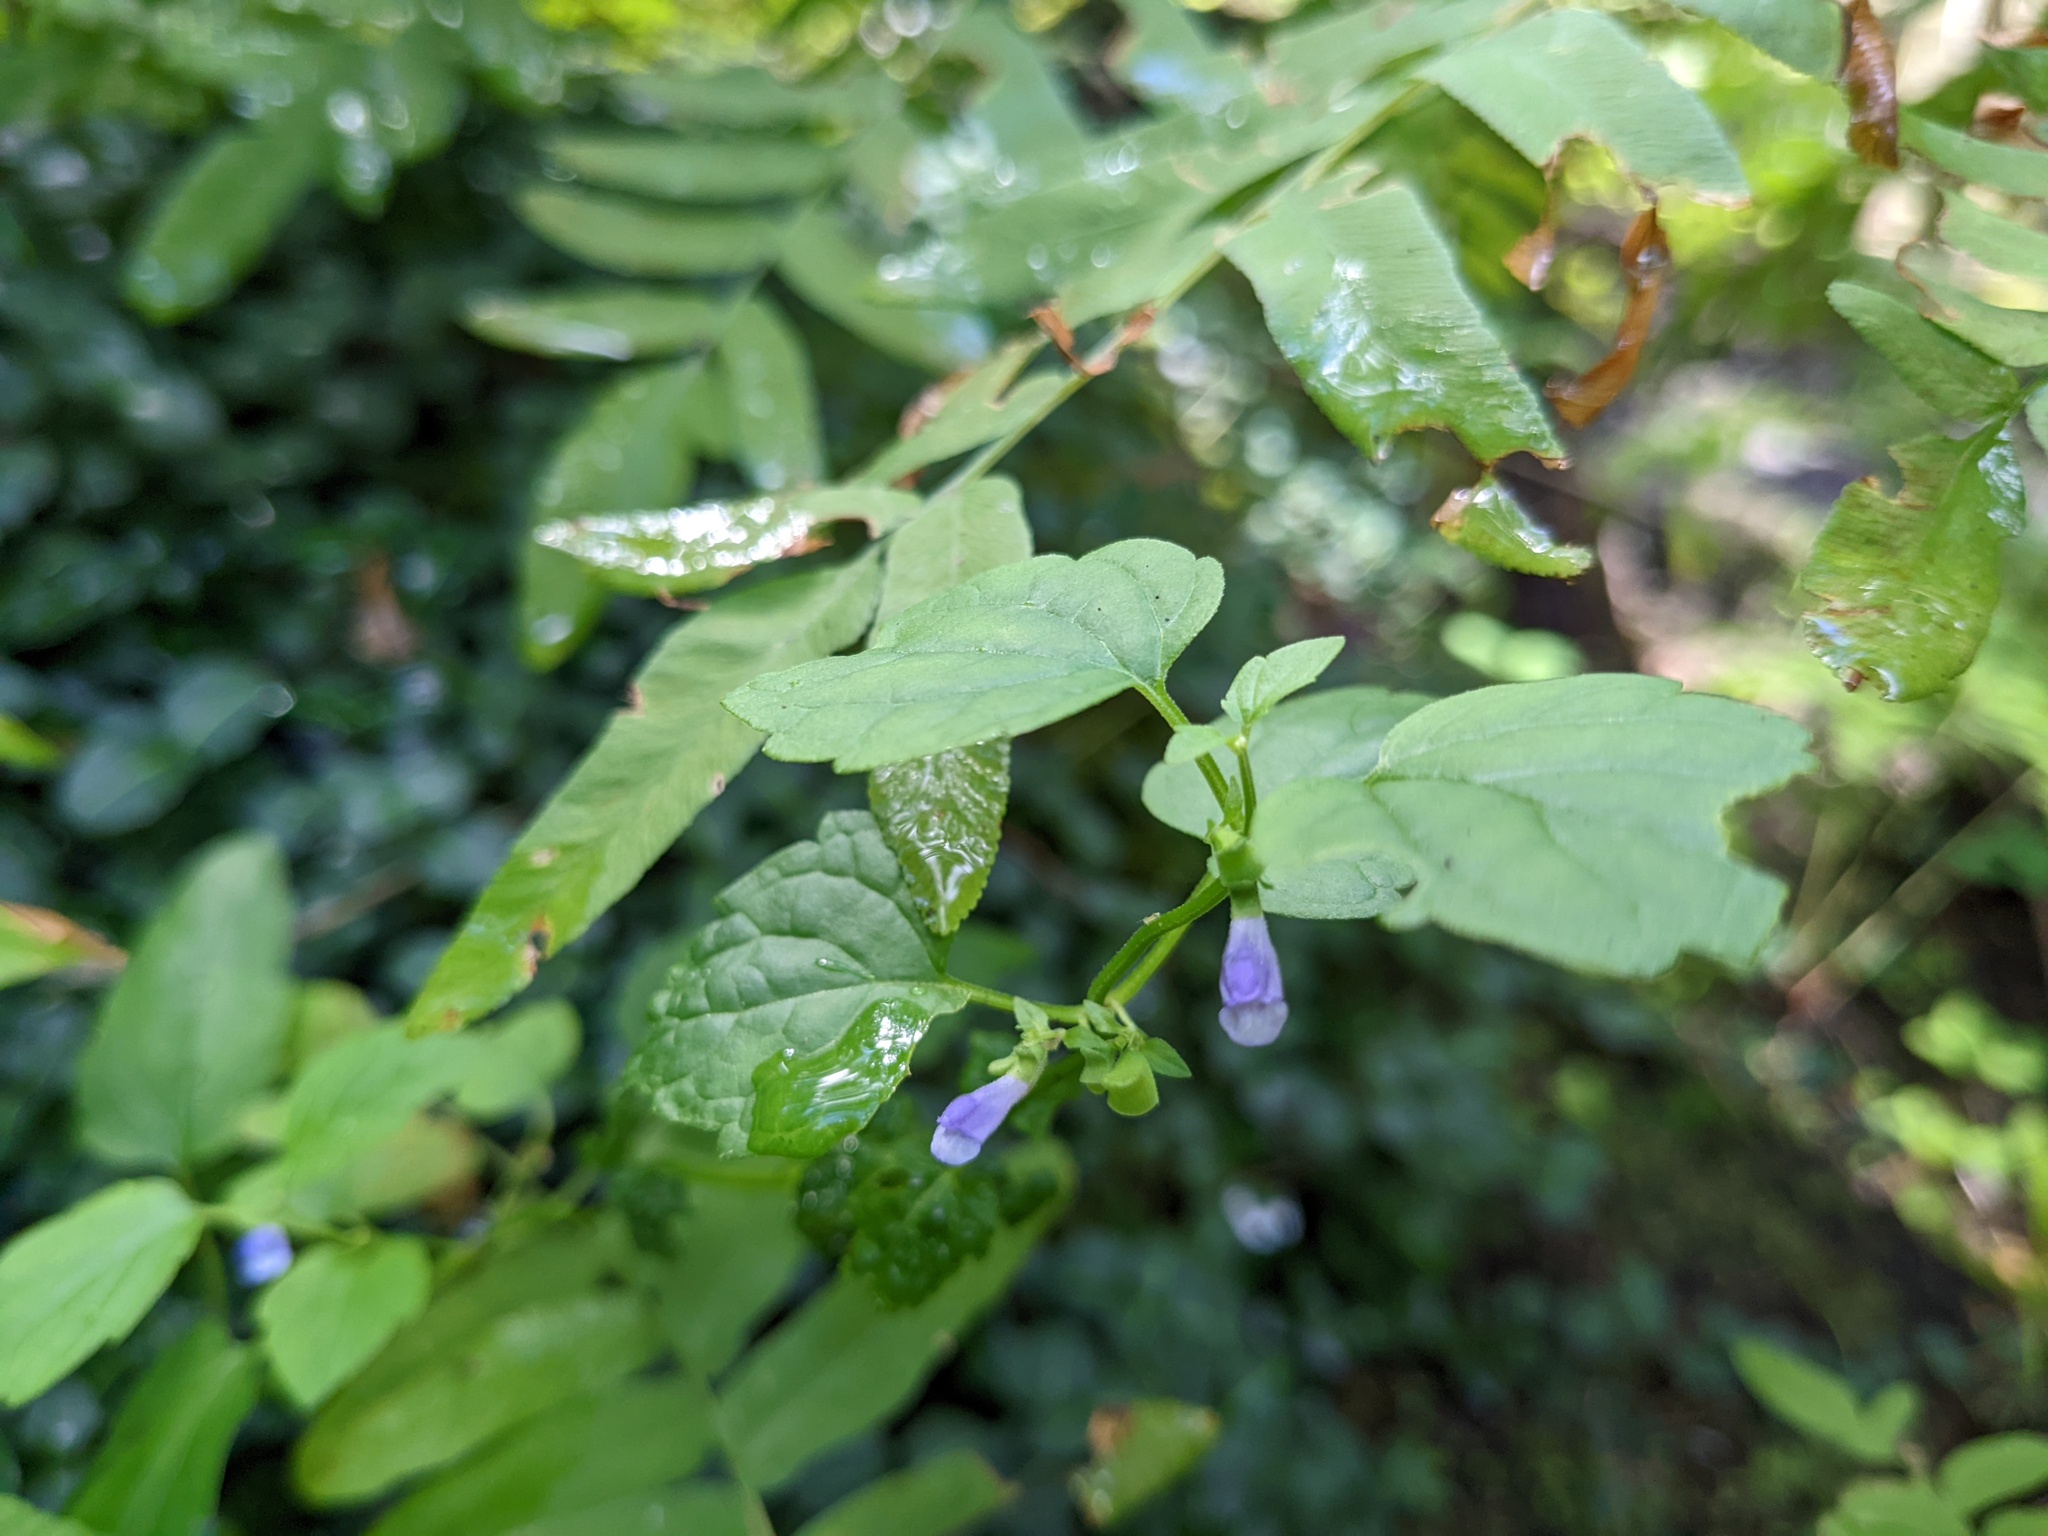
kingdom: Plantae
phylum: Tracheophyta
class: Magnoliopsida
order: Lamiales
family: Lamiaceae
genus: Scutellaria
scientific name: Scutellaria lateriflora
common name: Blue skullcap
